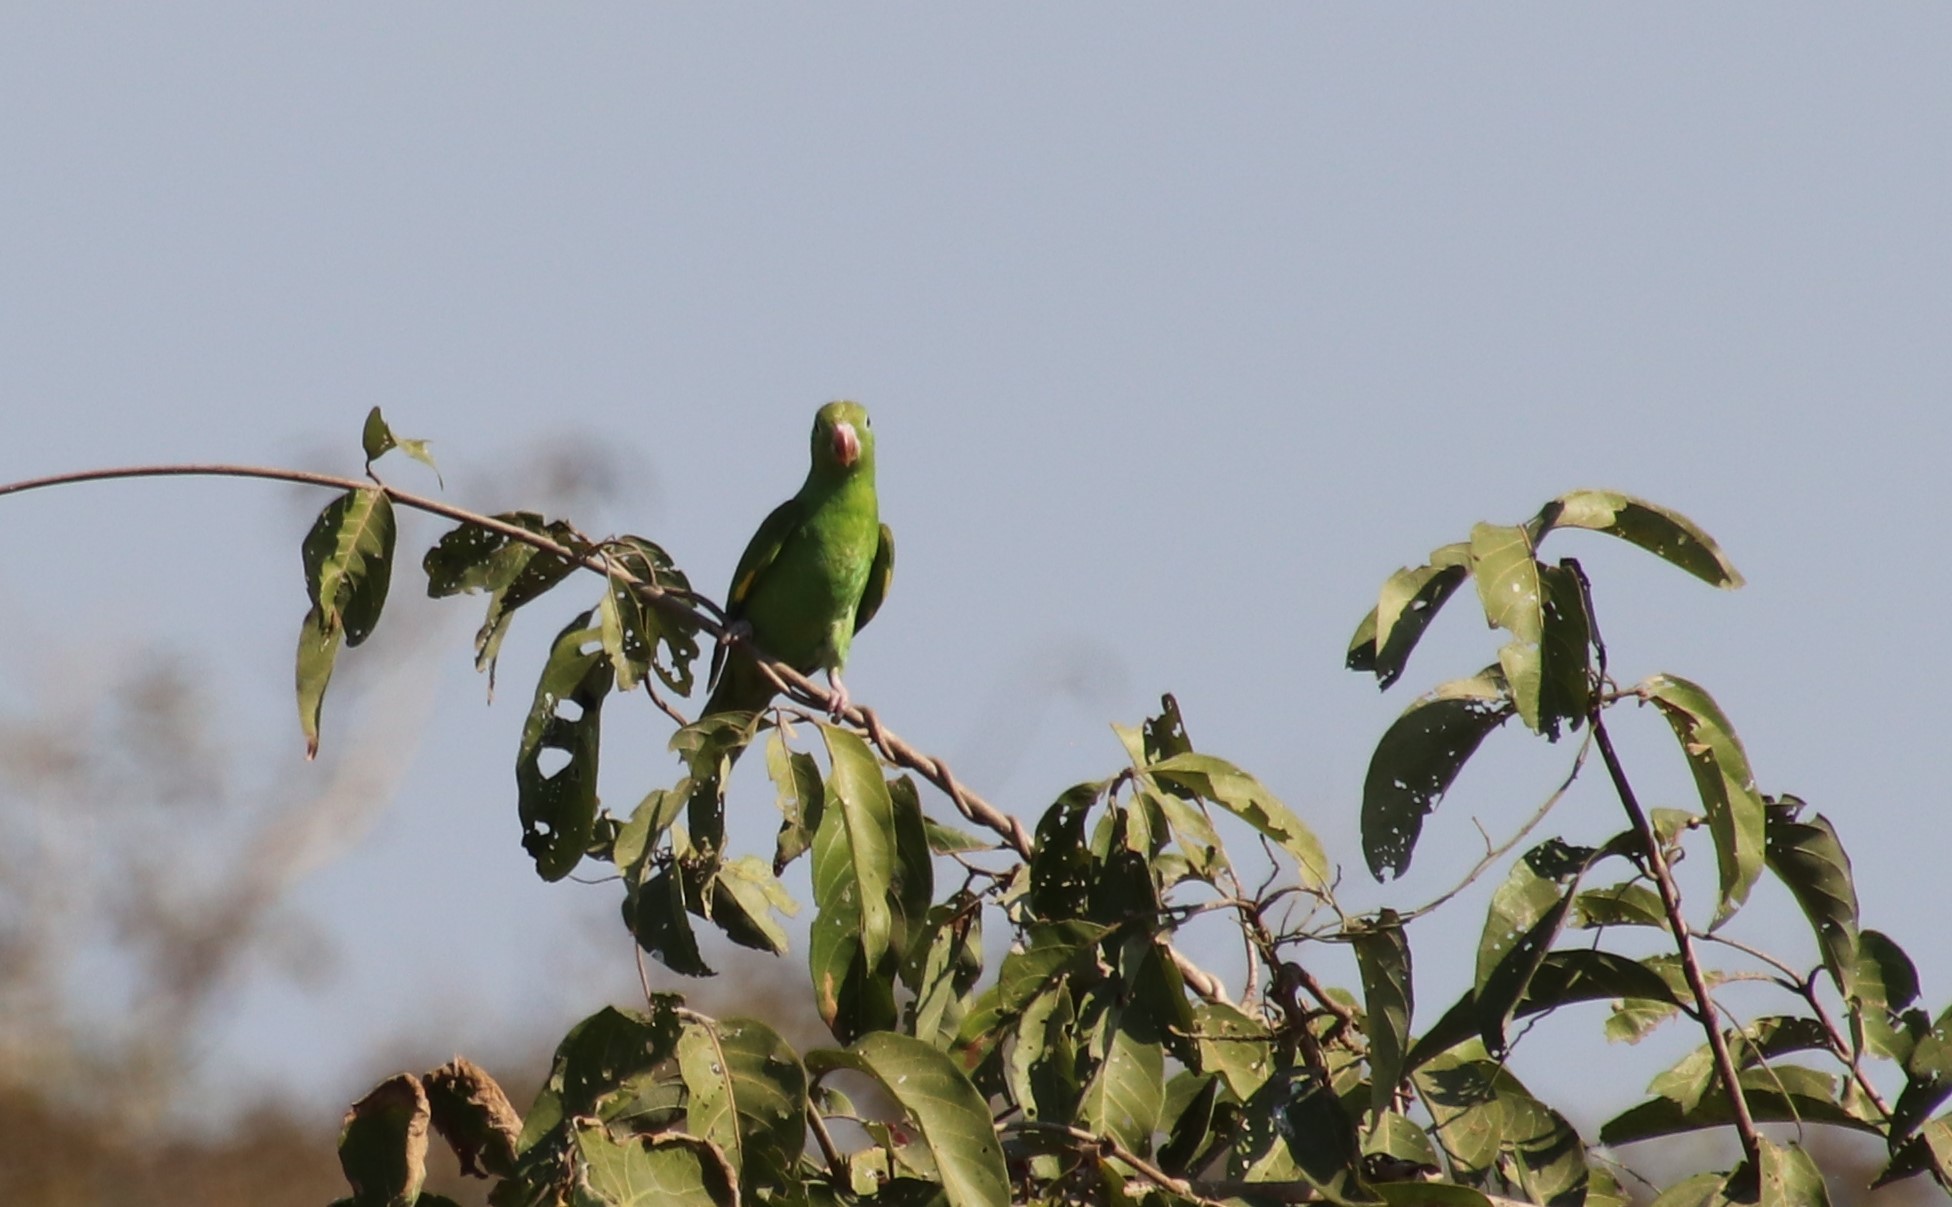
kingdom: Animalia
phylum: Chordata
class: Aves
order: Psittaciformes
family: Psittacidae
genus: Brotogeris
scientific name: Brotogeris chiriri
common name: Yellow-chevroned parakeet
